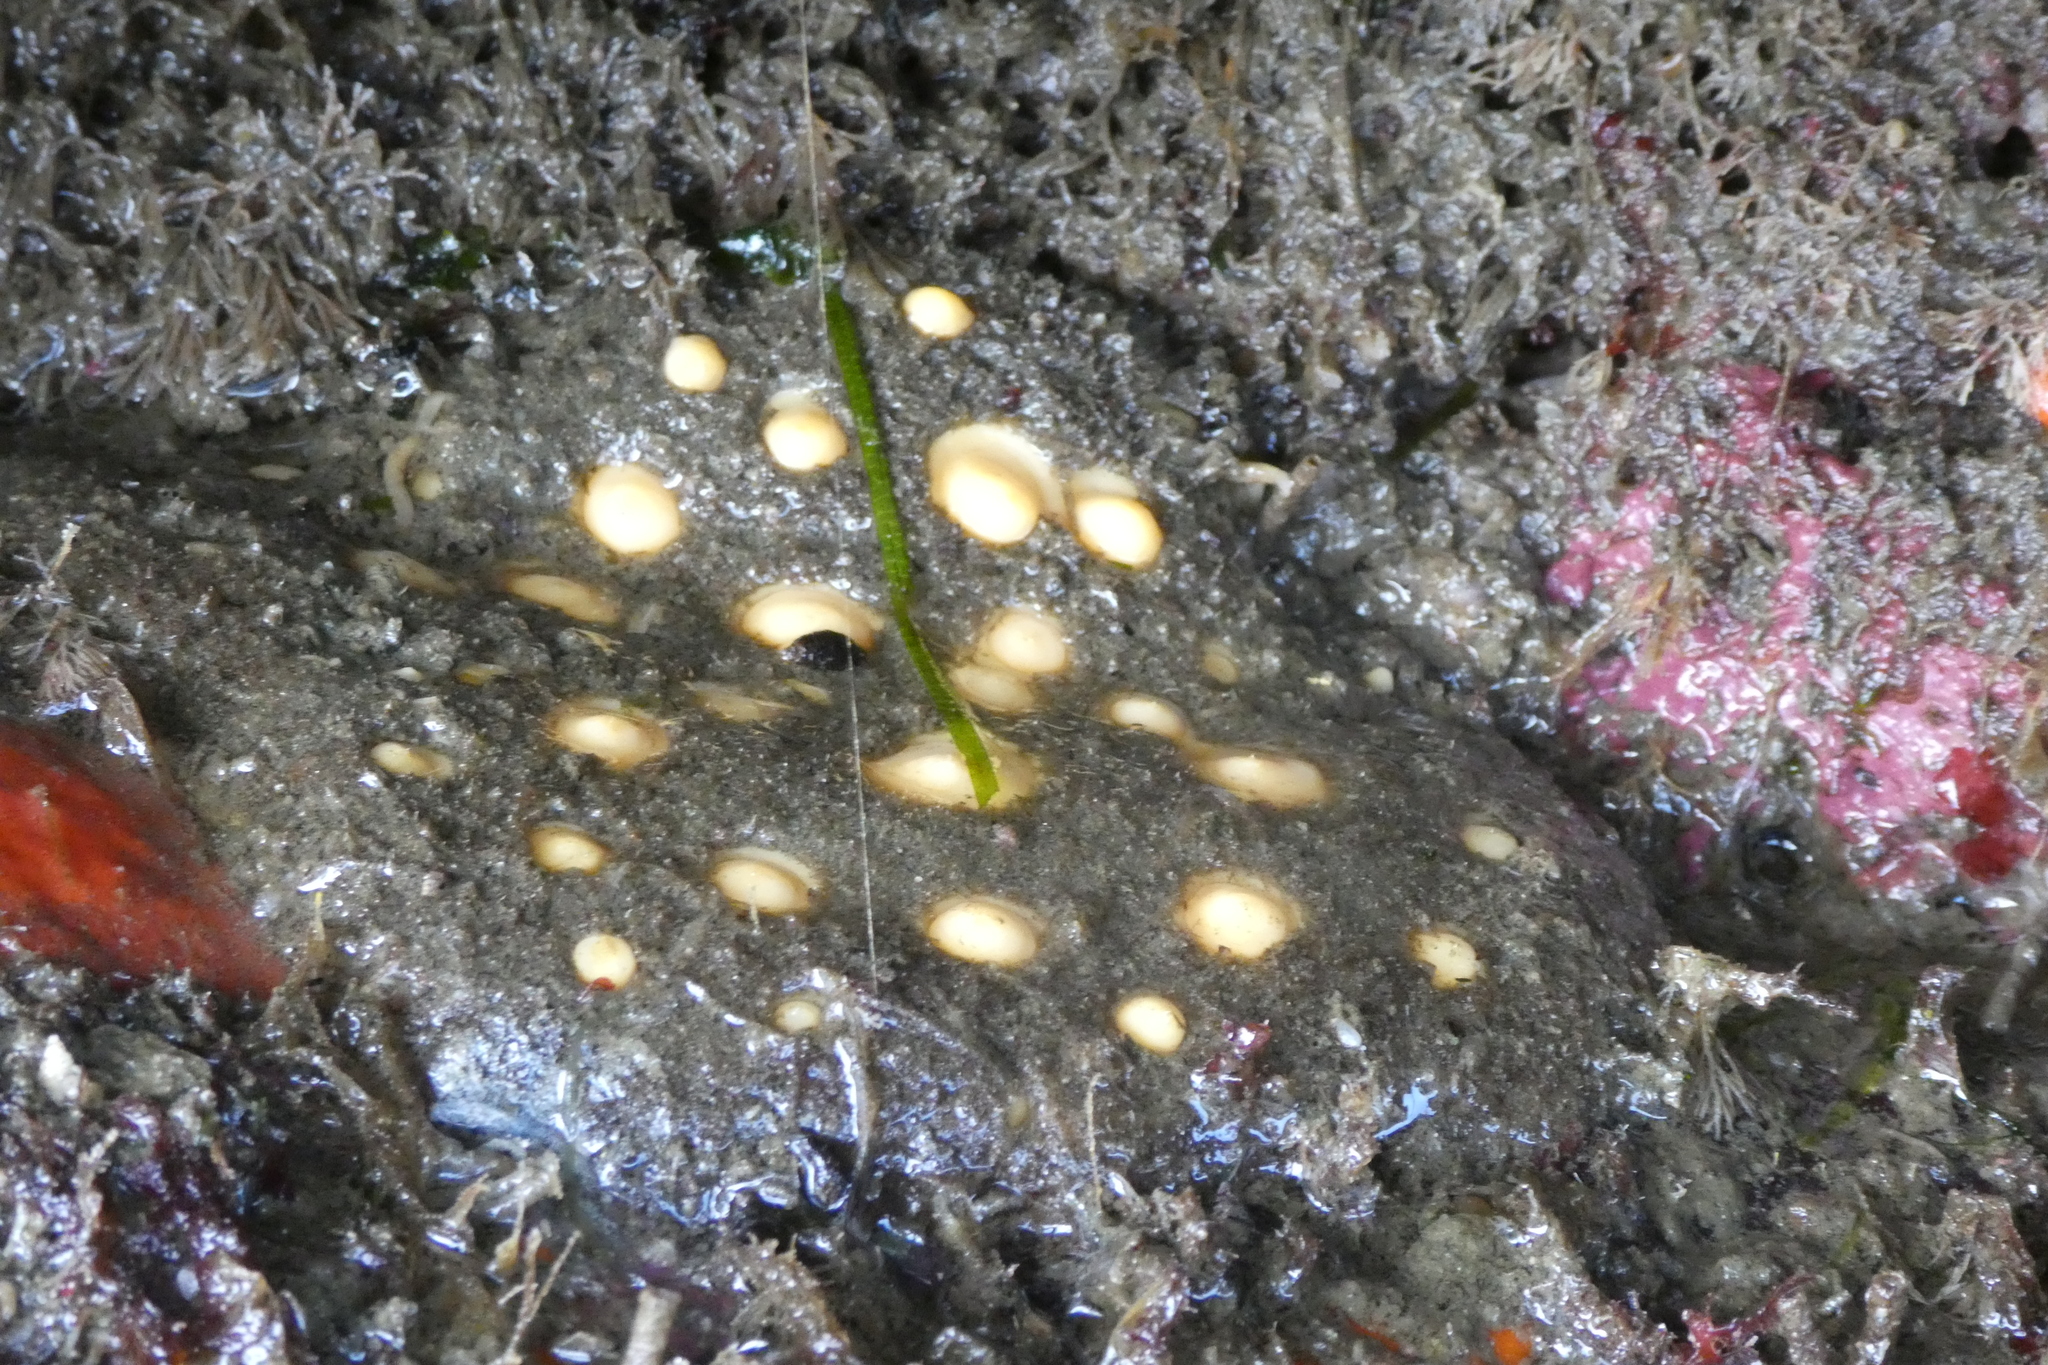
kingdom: Animalia
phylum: Porifera
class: Demospongiae
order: Polymastiida
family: Polymastiidae
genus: Polymastia
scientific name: Polymastia pachymastia
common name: Aggregated nipple horny sponge
